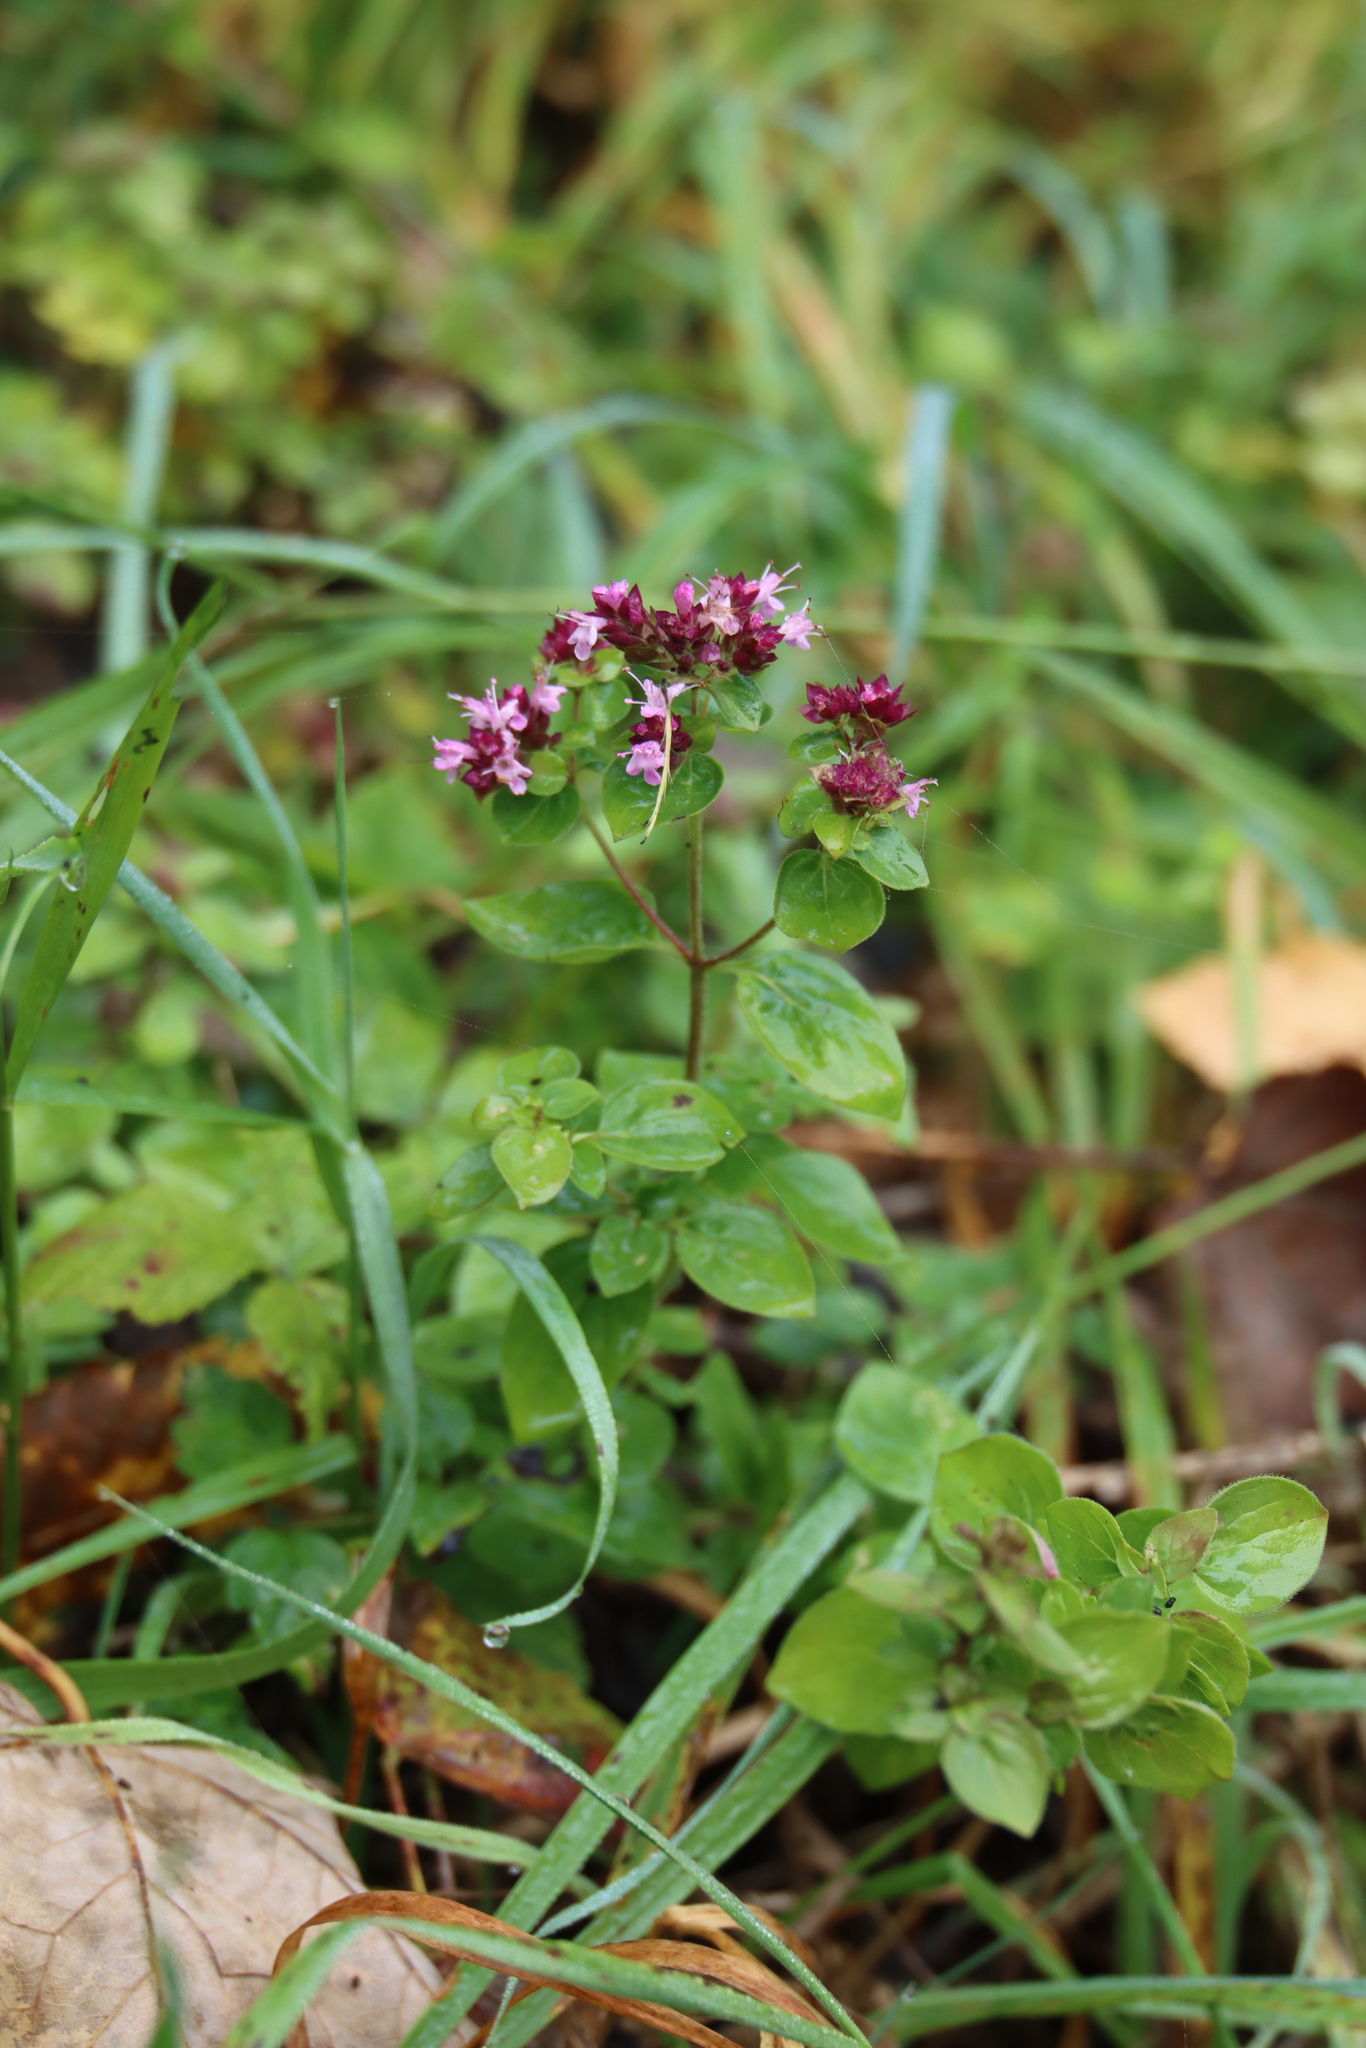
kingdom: Plantae
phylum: Tracheophyta
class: Magnoliopsida
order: Lamiales
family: Lamiaceae
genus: Origanum
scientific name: Origanum vulgare
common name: Wild marjoram
